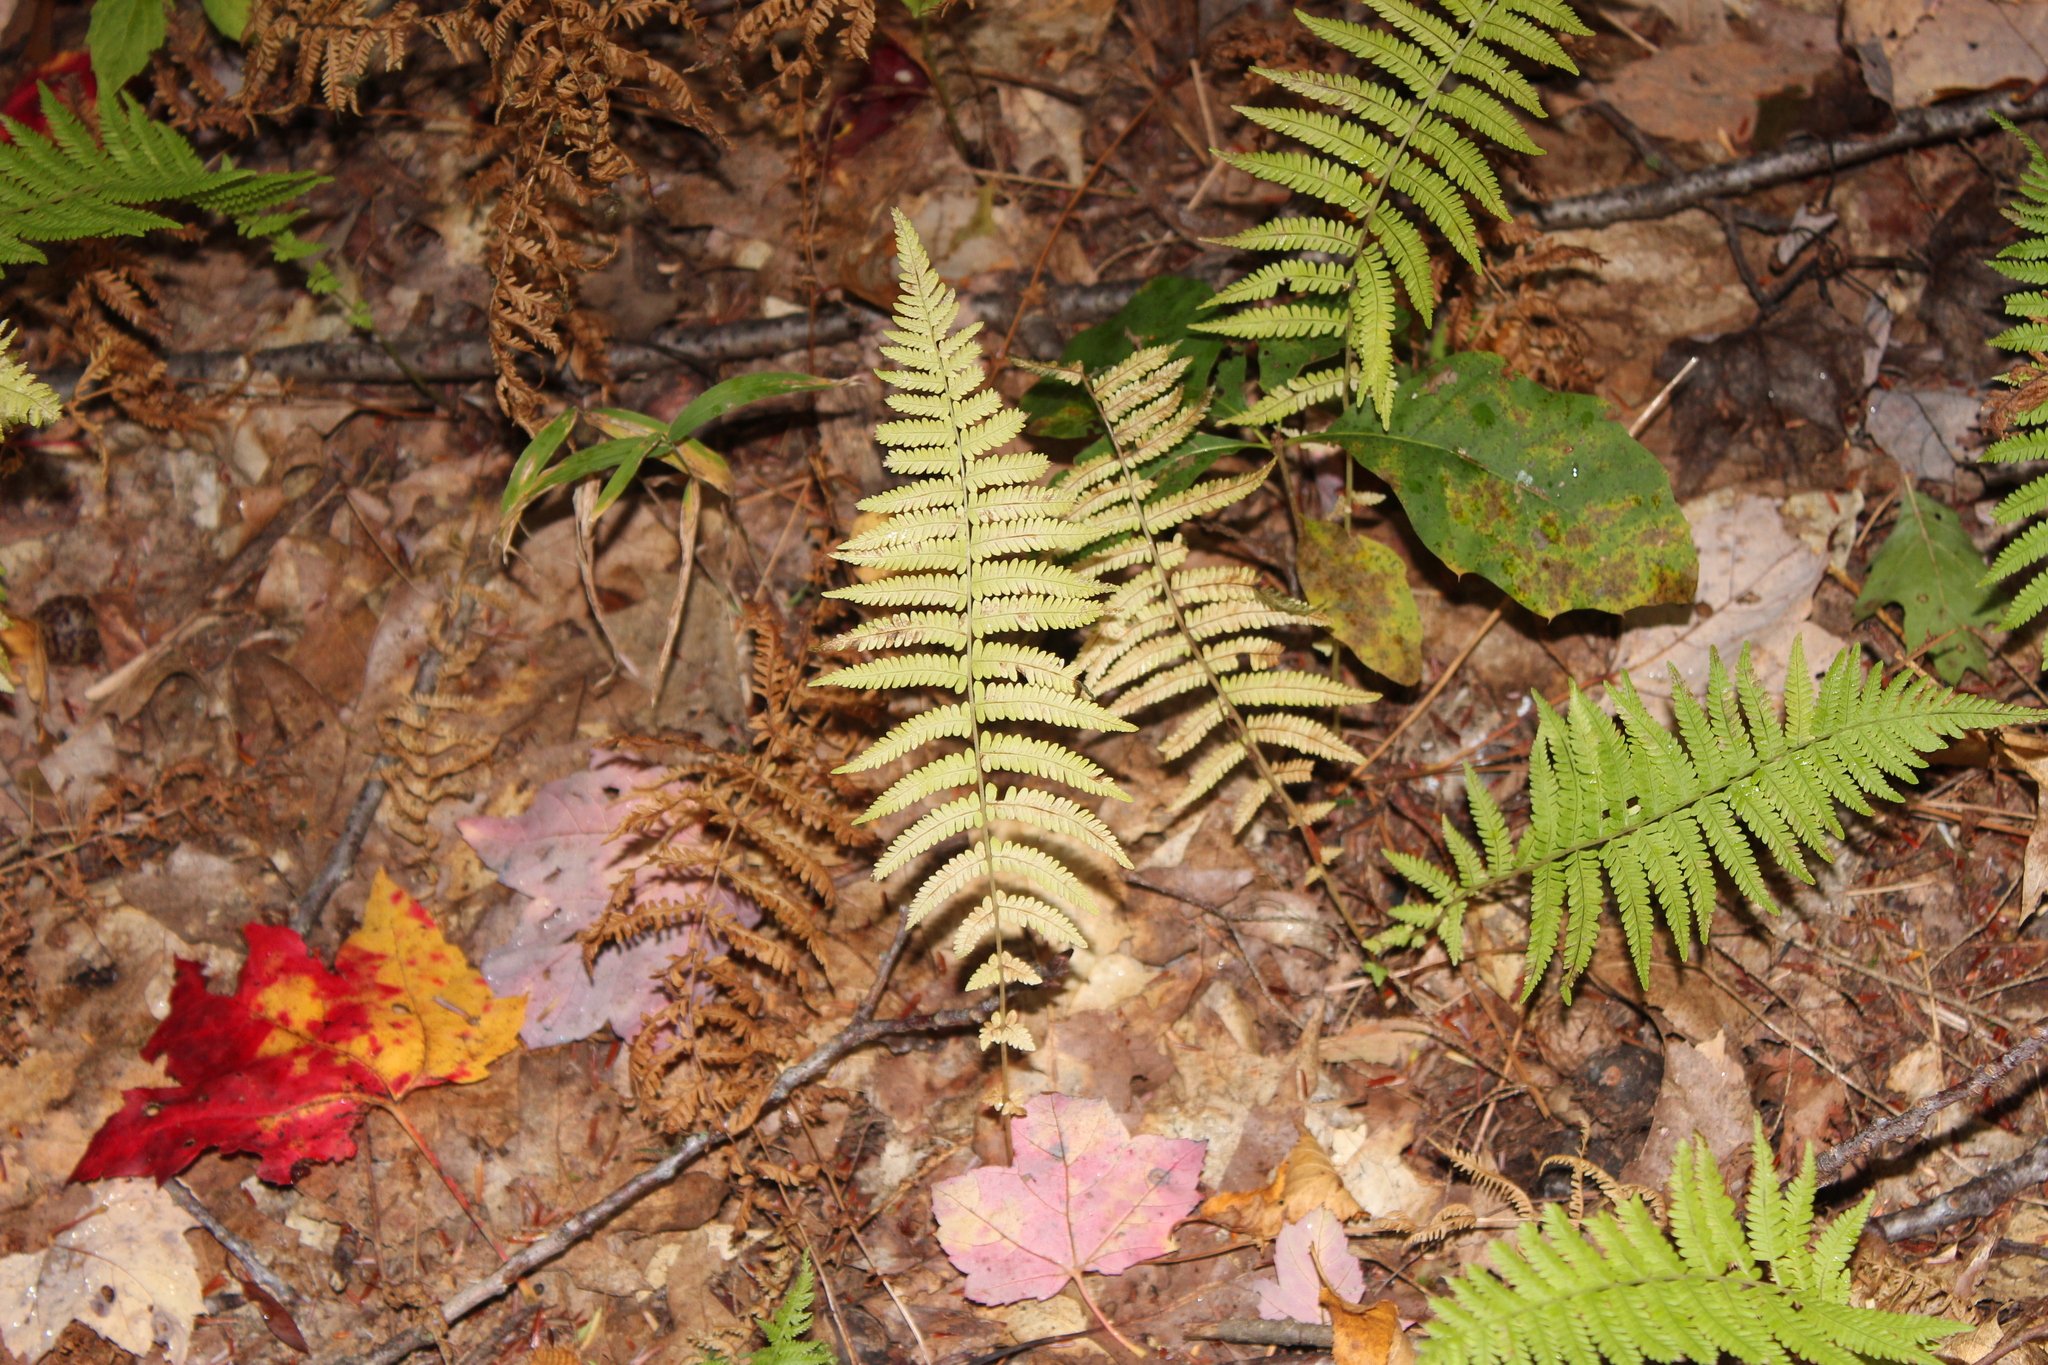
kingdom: Plantae
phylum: Tracheophyta
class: Polypodiopsida
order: Polypodiales
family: Thelypteridaceae
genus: Amauropelta
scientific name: Amauropelta noveboracensis
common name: New york fern
